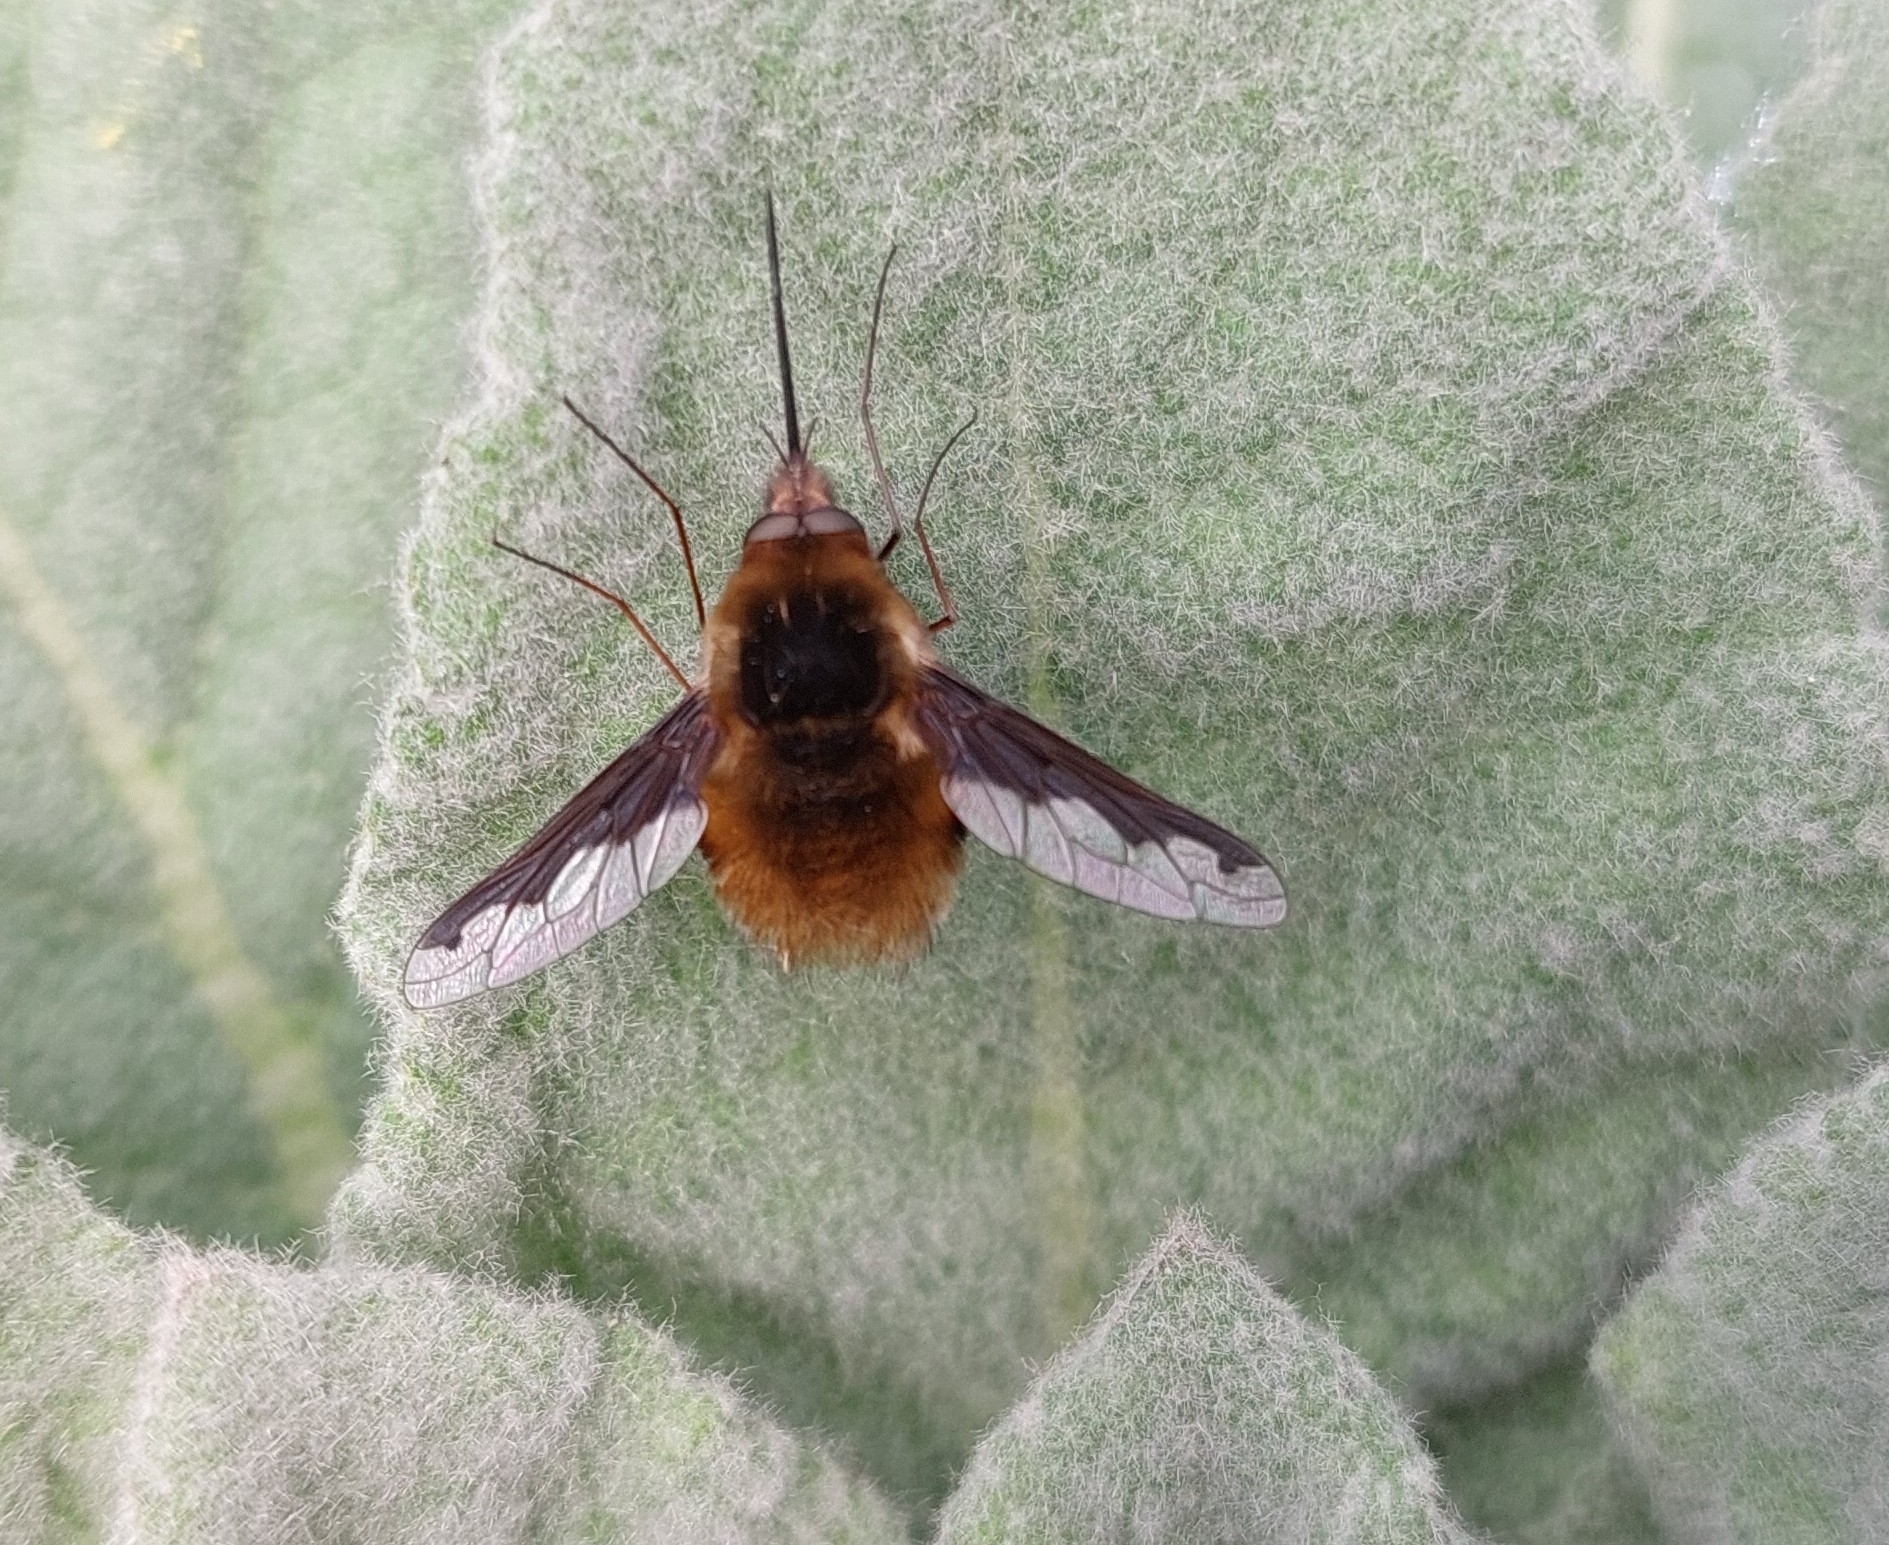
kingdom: Animalia
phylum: Arthropoda
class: Insecta
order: Diptera
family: Bombyliidae
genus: Bombylius
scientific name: Bombylius major
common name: Bee fly
